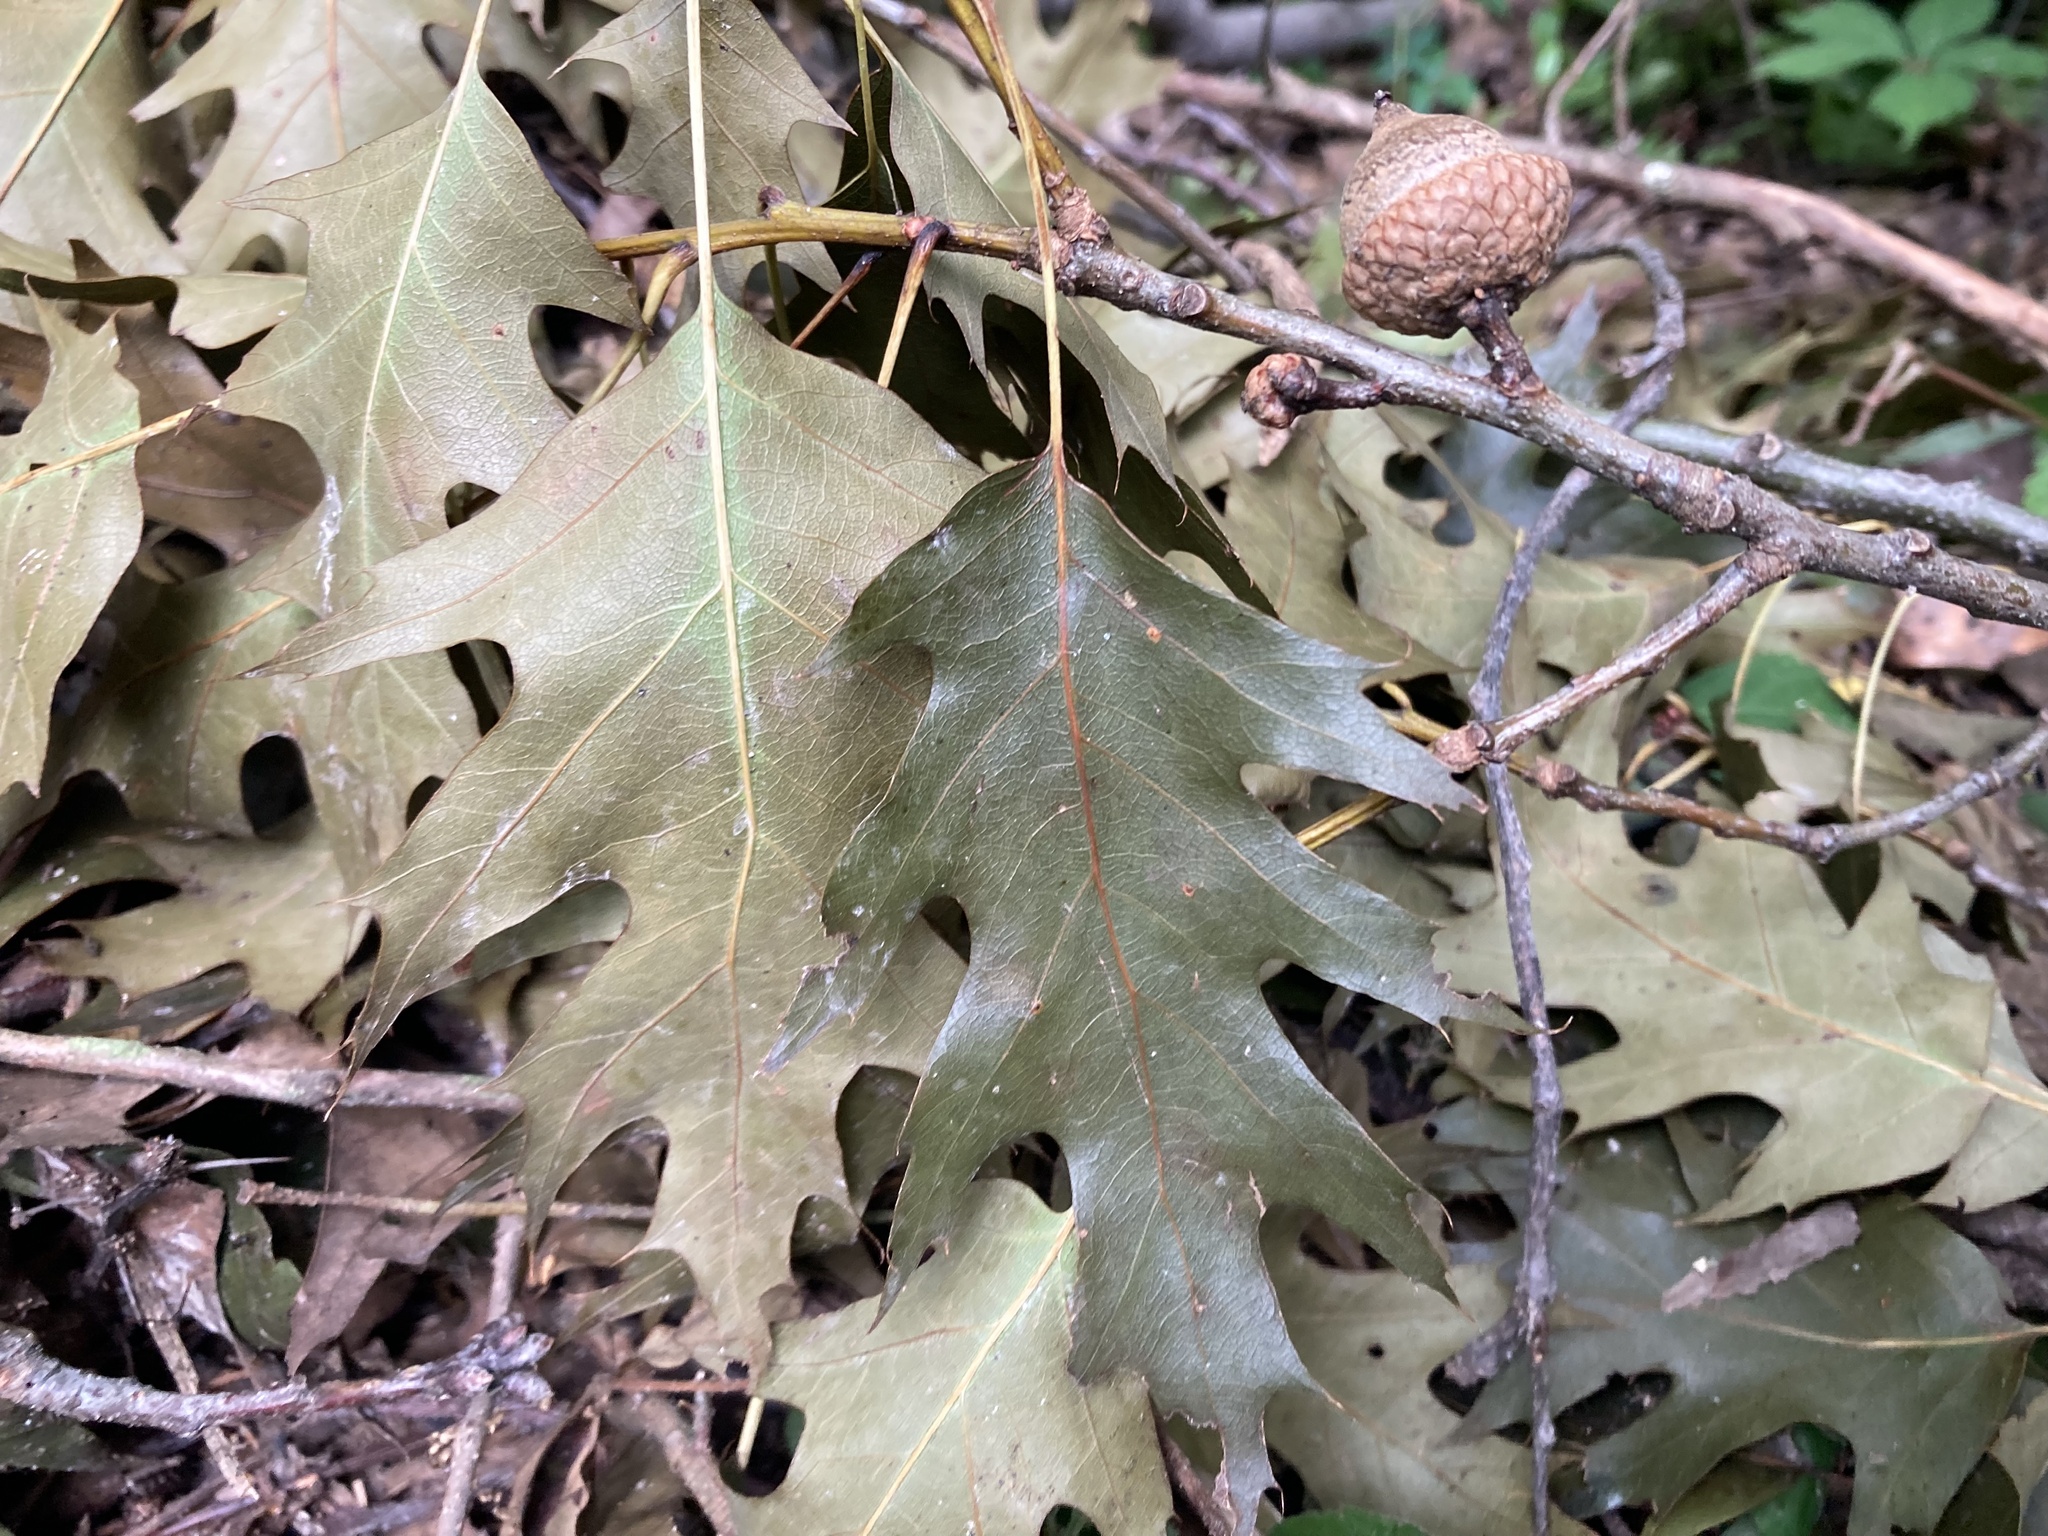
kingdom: Plantae
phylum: Tracheophyta
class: Magnoliopsida
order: Fagales
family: Fagaceae
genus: Quercus
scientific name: Quercus rubra
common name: Red oak
